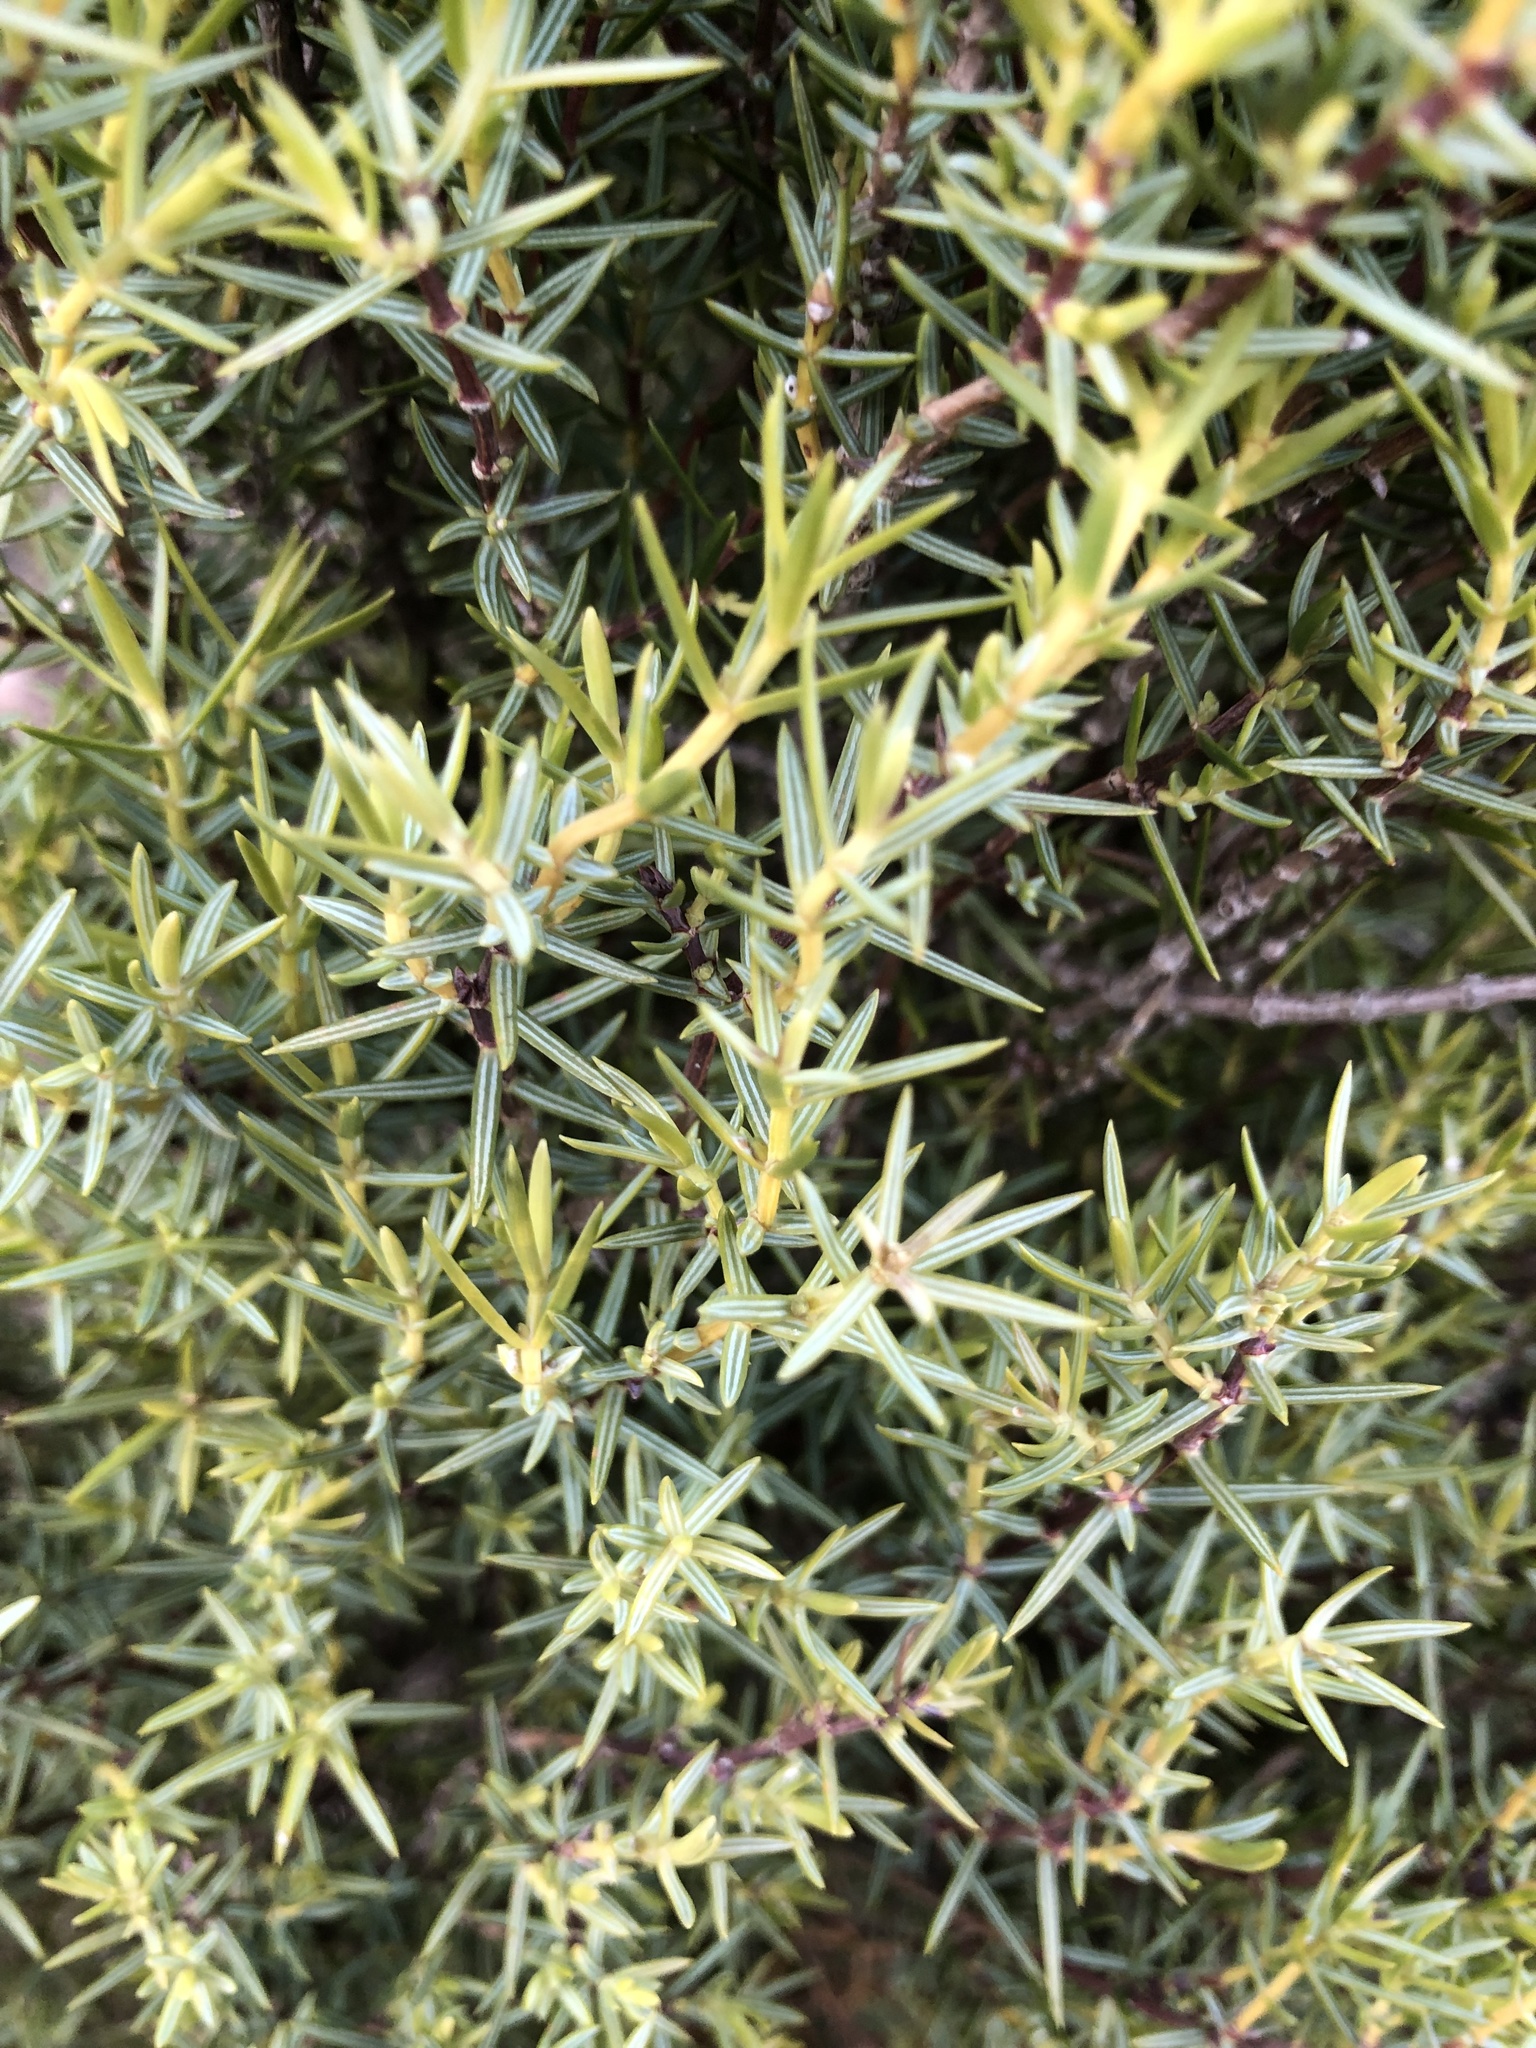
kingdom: Plantae
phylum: Tracheophyta
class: Pinopsida
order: Pinales
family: Cupressaceae
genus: Juniperus
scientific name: Juniperus oxycedrus
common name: Prickly juniper
